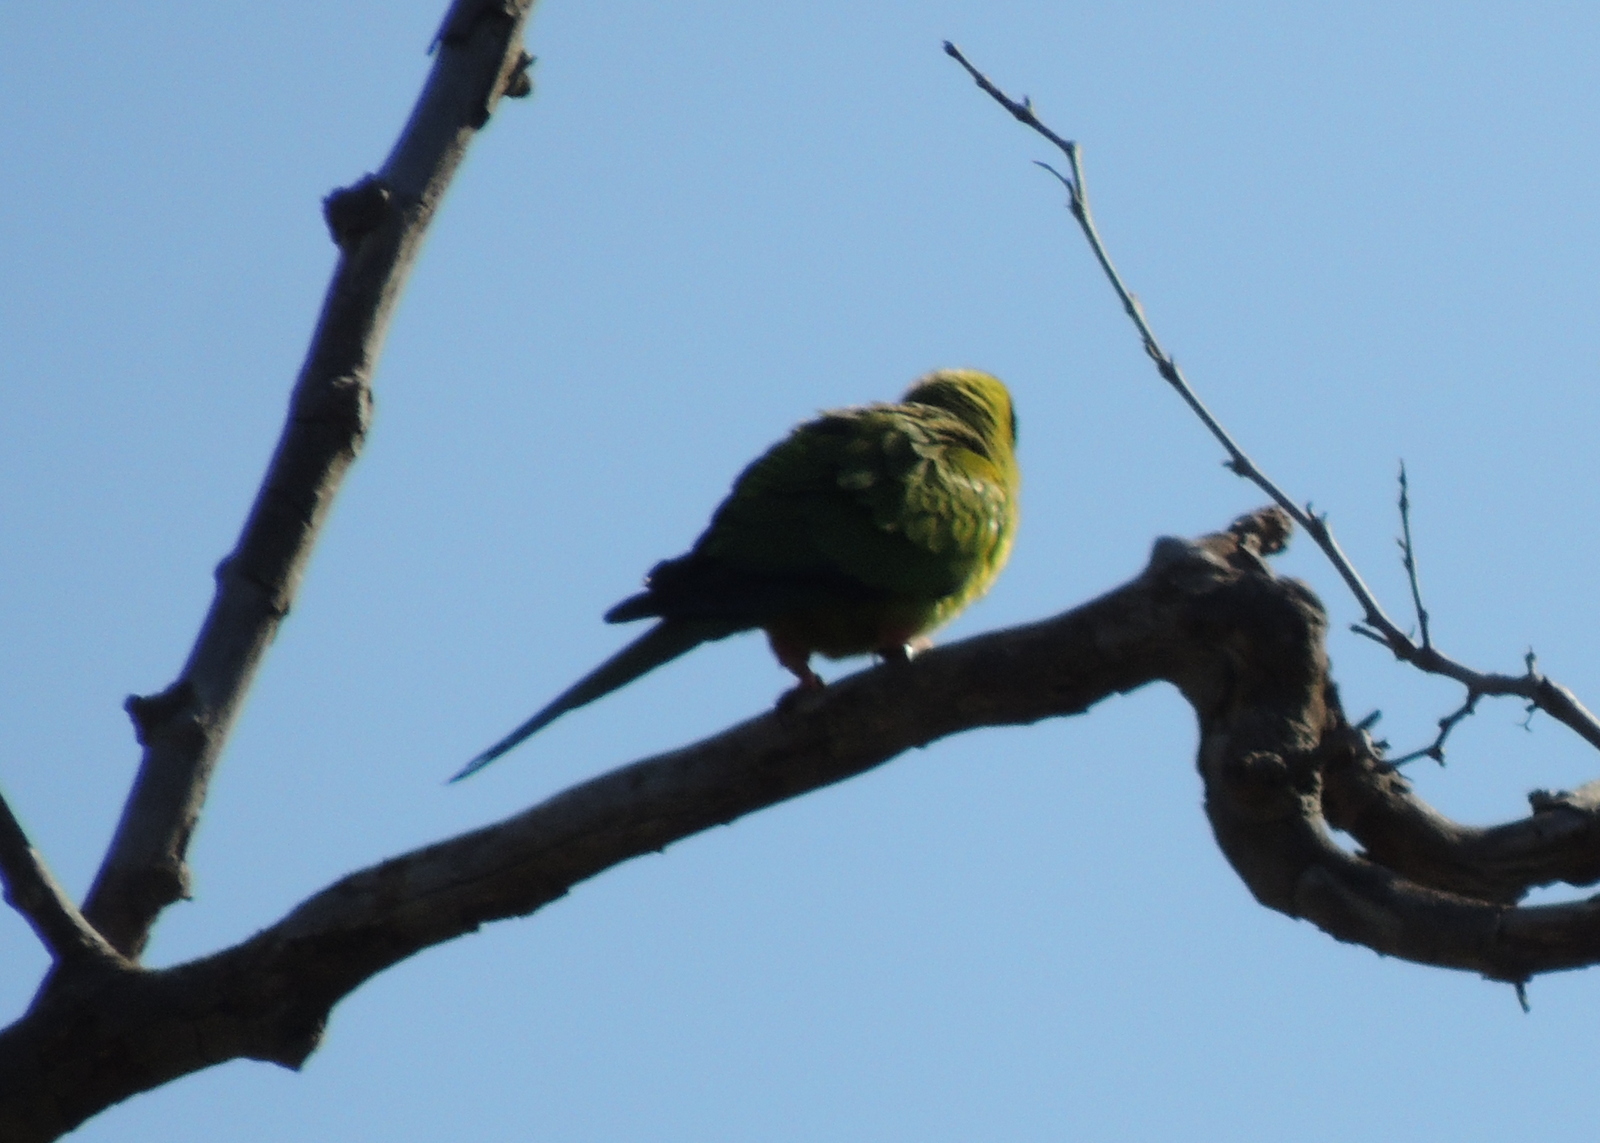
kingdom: Animalia
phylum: Chordata
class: Aves
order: Psittaciformes
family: Psittacidae
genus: Nandayus
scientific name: Nandayus nenday
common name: Nanday parakeet
